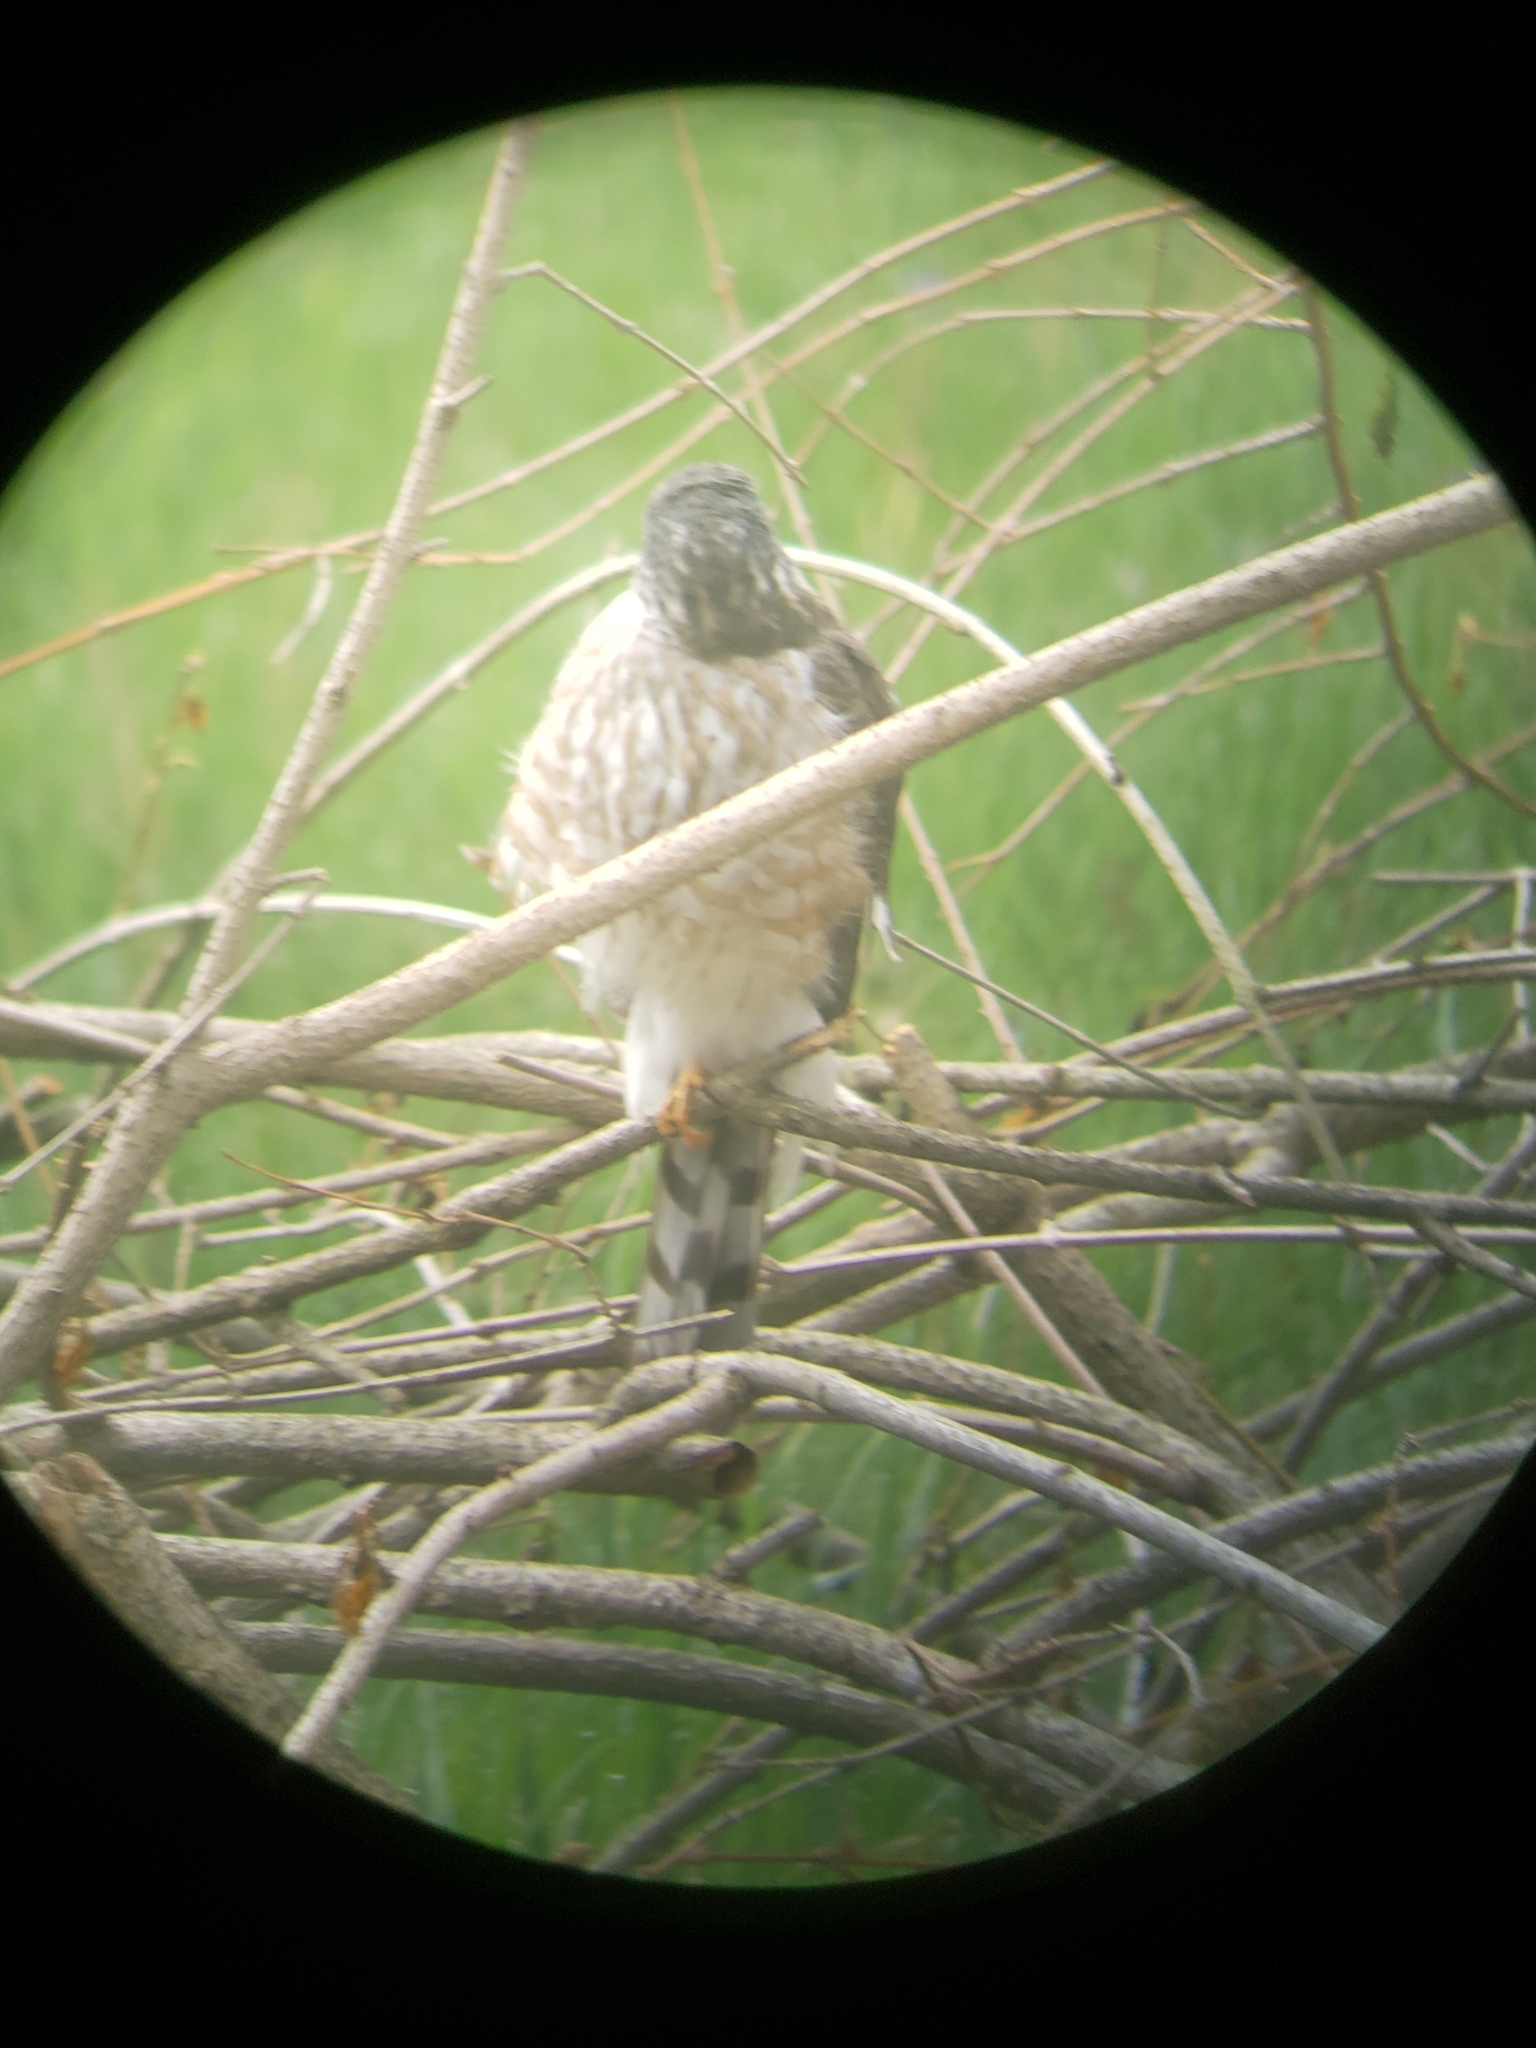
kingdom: Animalia
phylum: Chordata
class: Aves
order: Accipitriformes
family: Accipitridae
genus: Accipiter
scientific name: Accipiter striatus
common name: Sharp-shinned hawk
